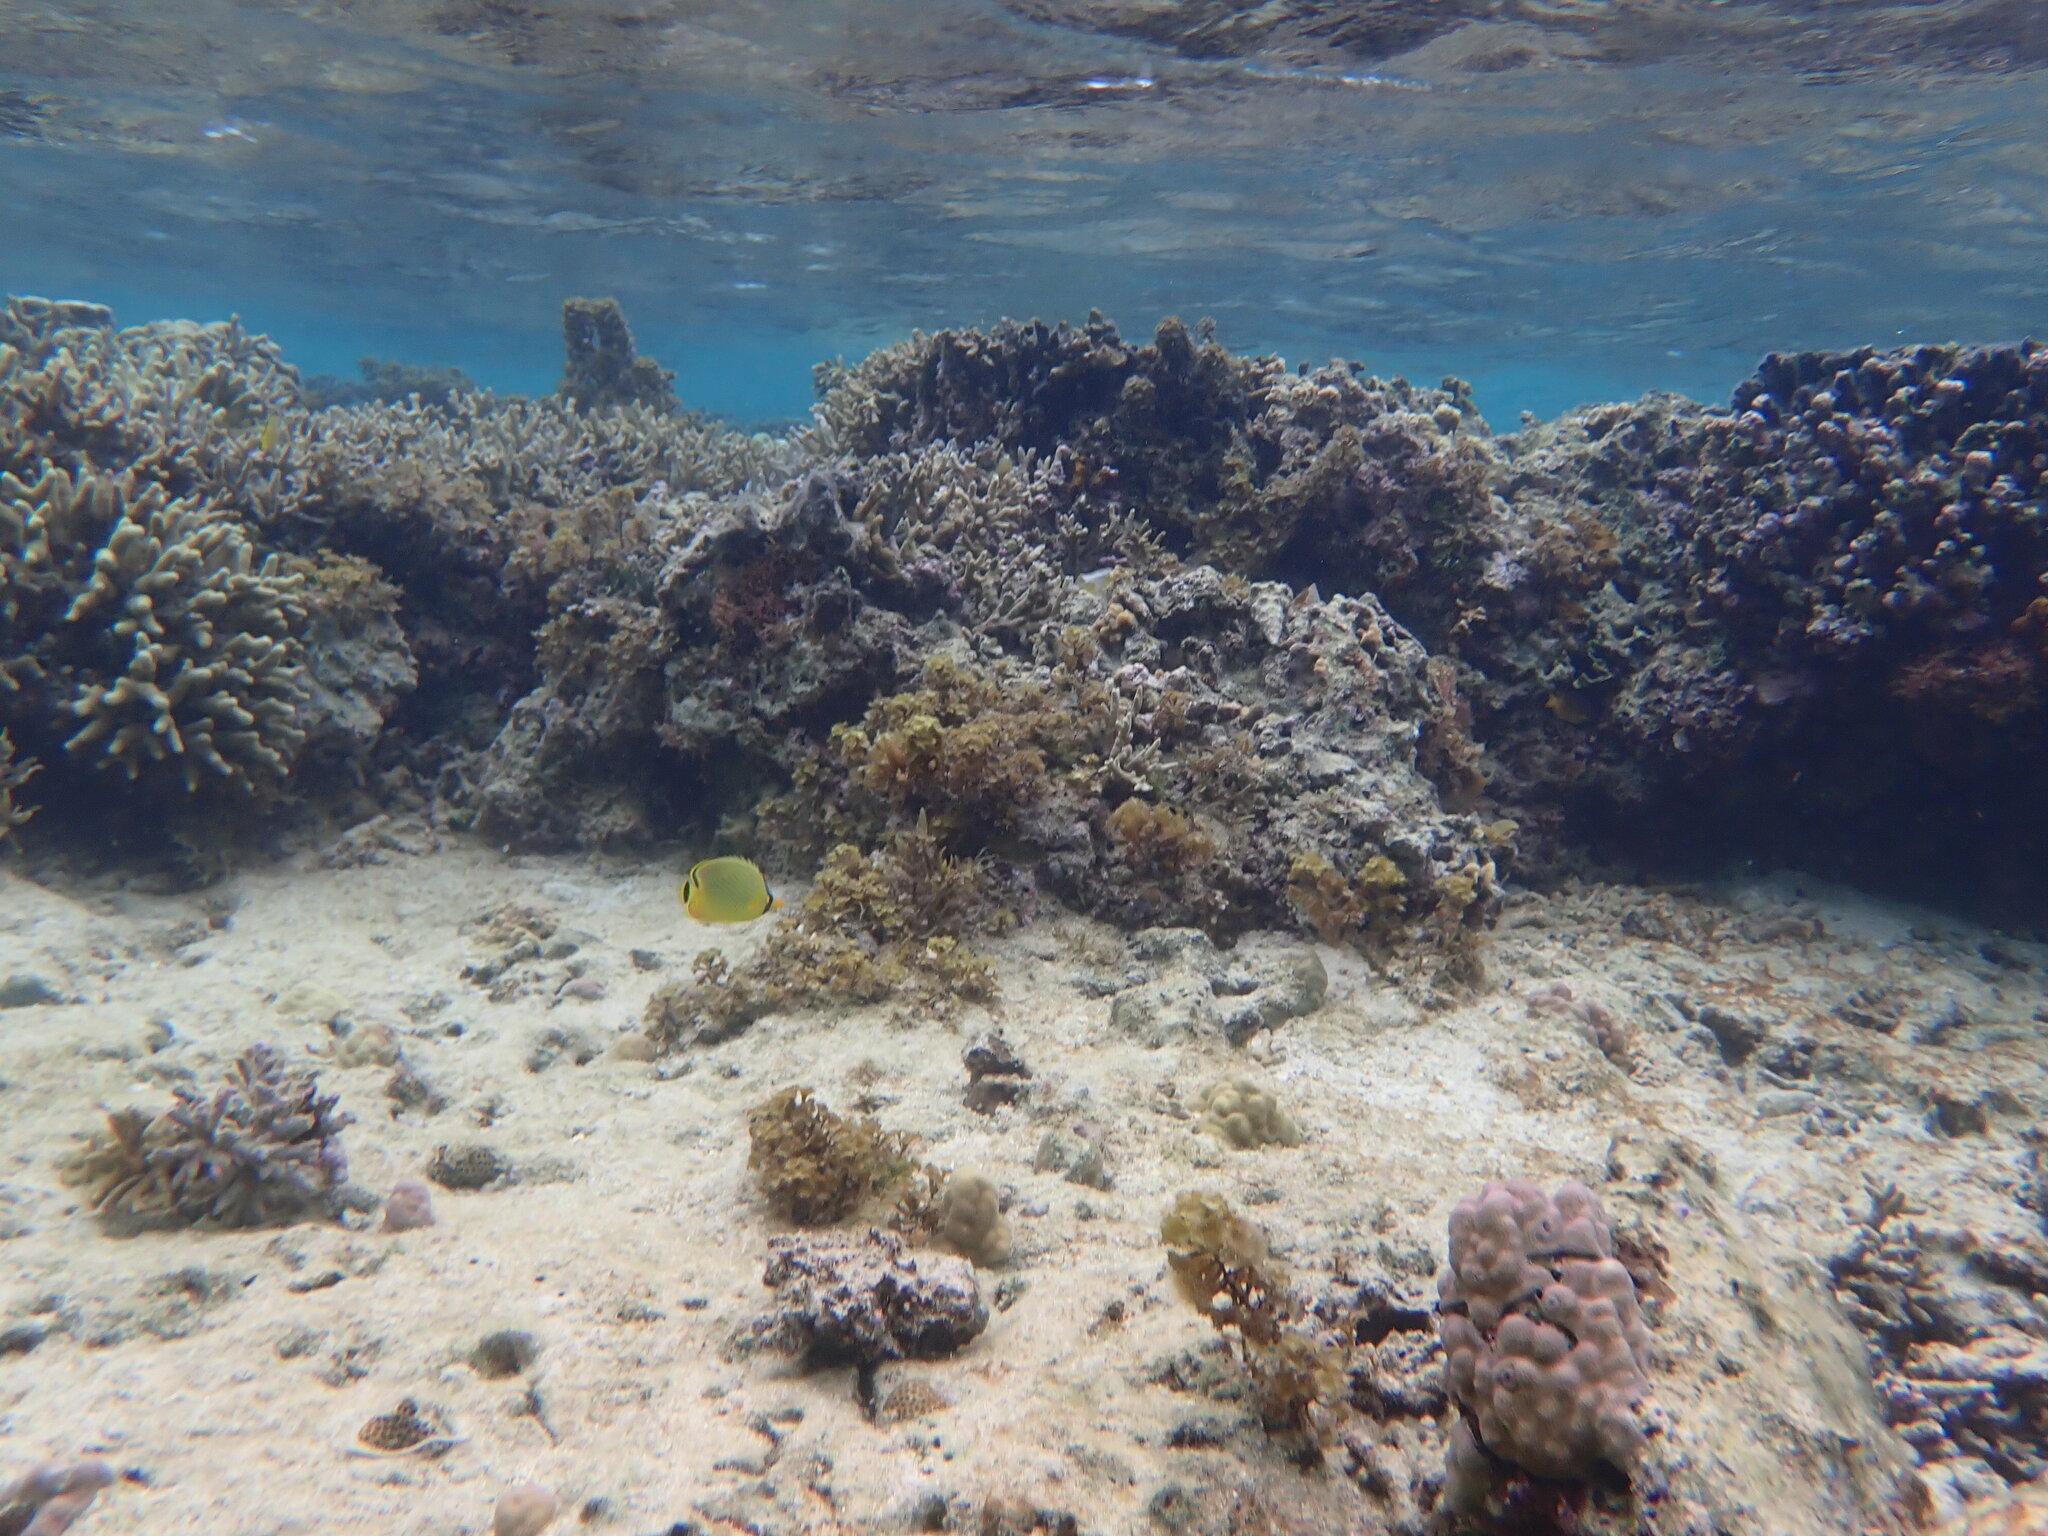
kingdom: Animalia
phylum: Chordata
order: Perciformes
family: Chaetodontidae
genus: Chaetodon
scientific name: Chaetodon rafflesii
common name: Latticed butterflyfish
